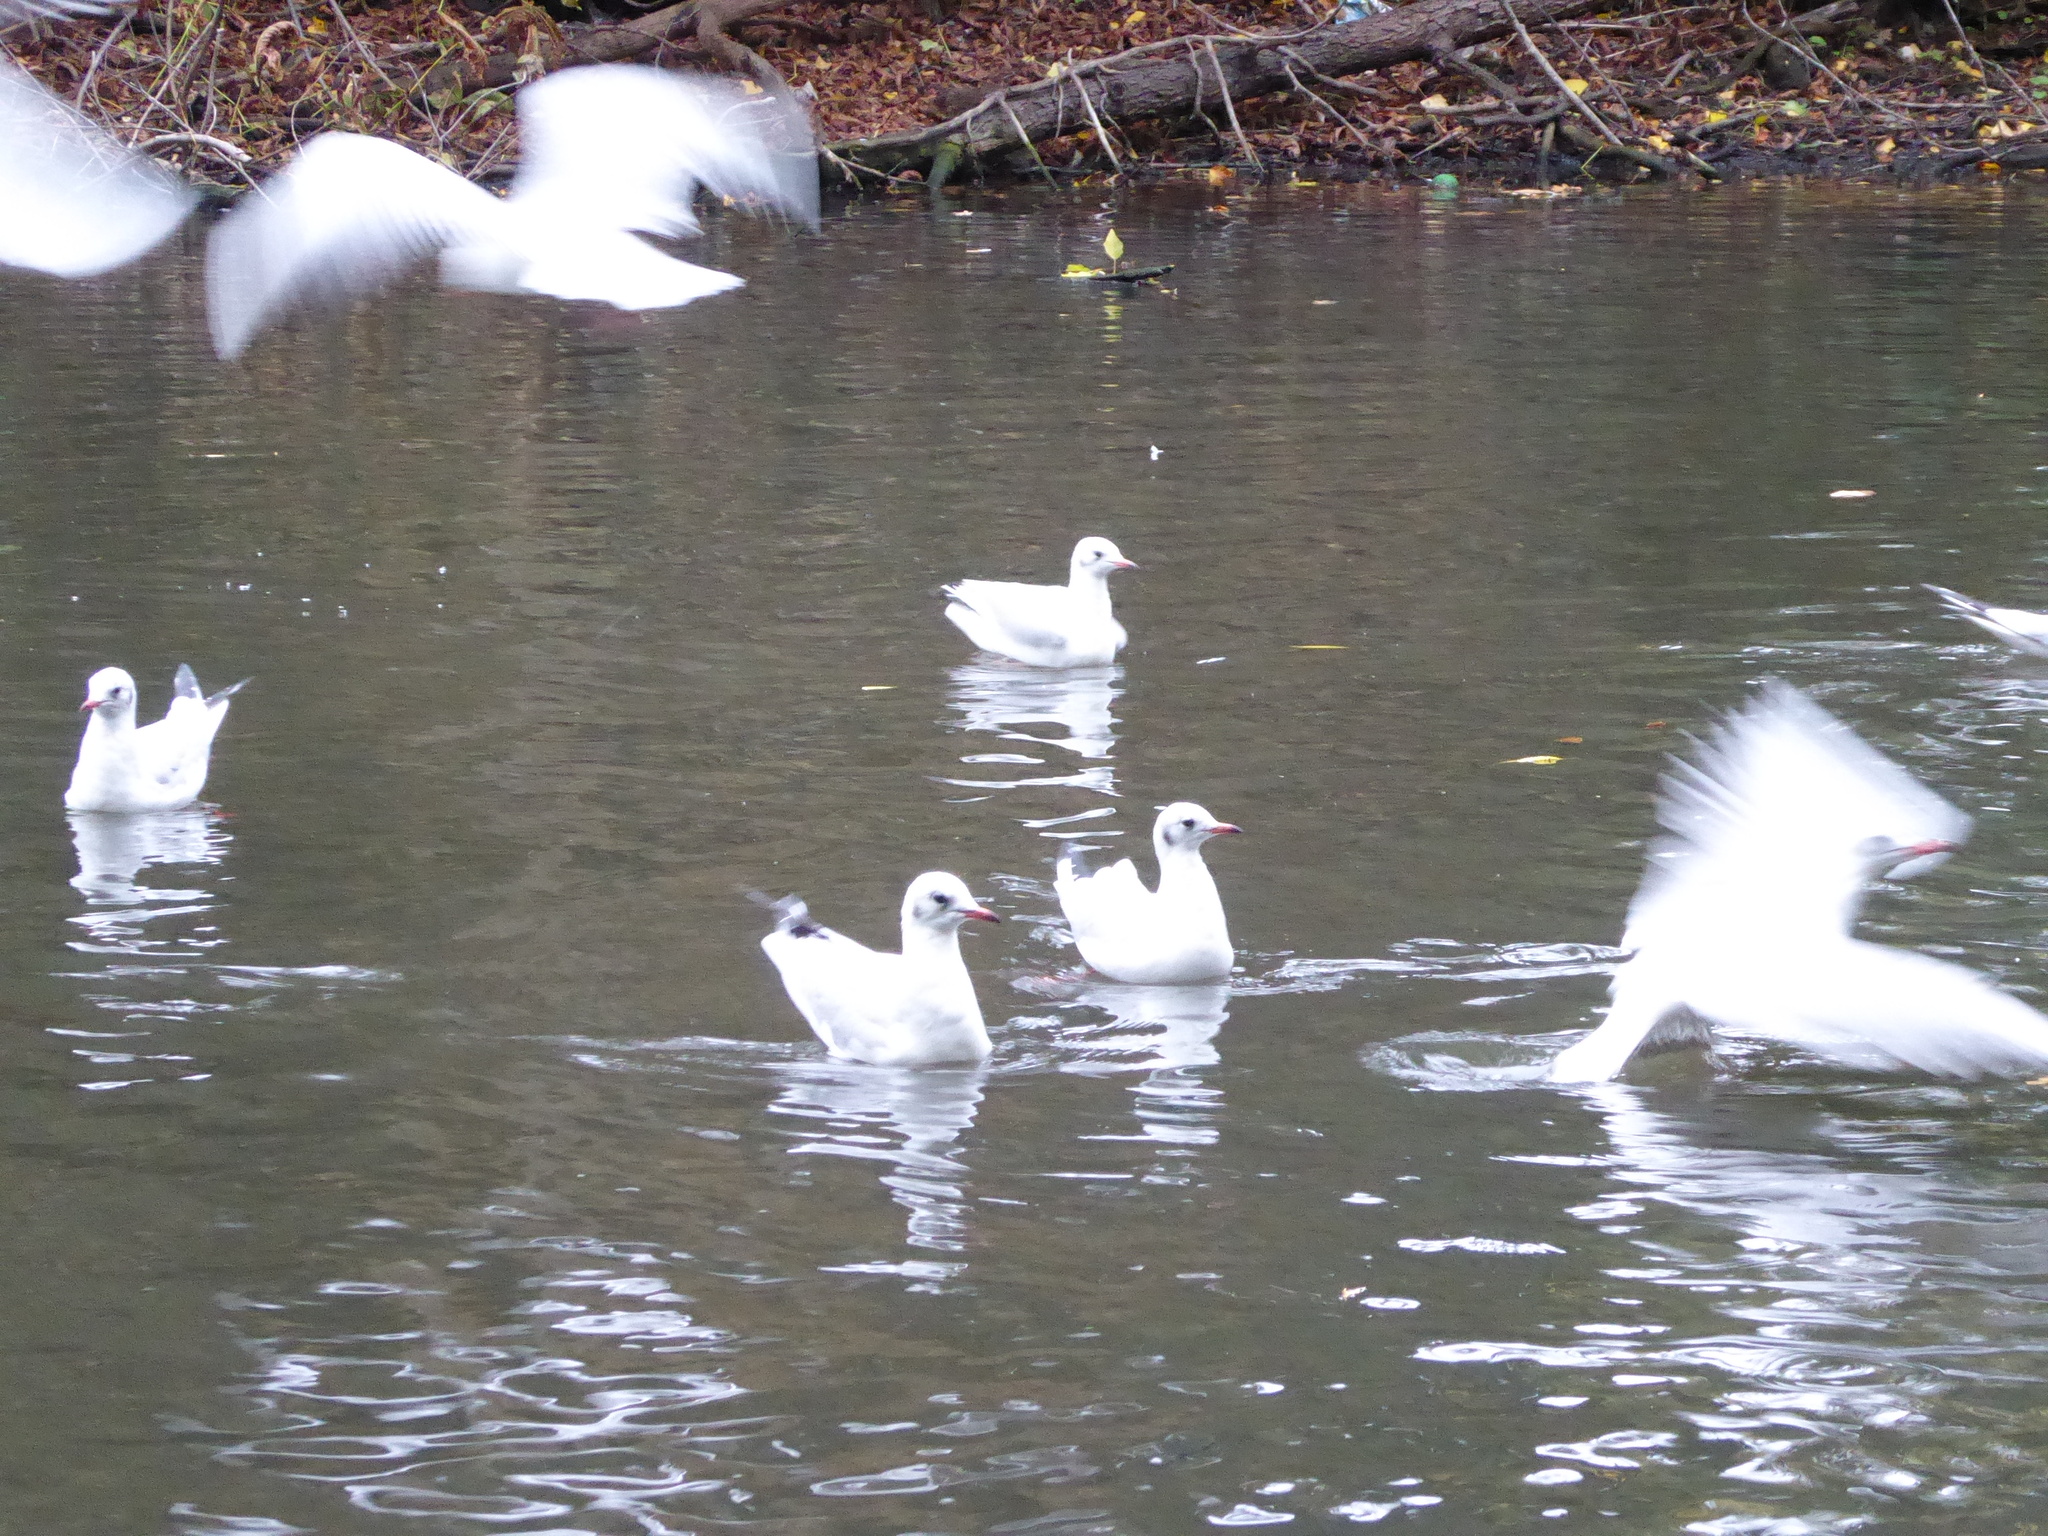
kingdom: Animalia
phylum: Chordata
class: Aves
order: Charadriiformes
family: Laridae
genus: Chroicocephalus
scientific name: Chroicocephalus ridibundus
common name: Black-headed gull
